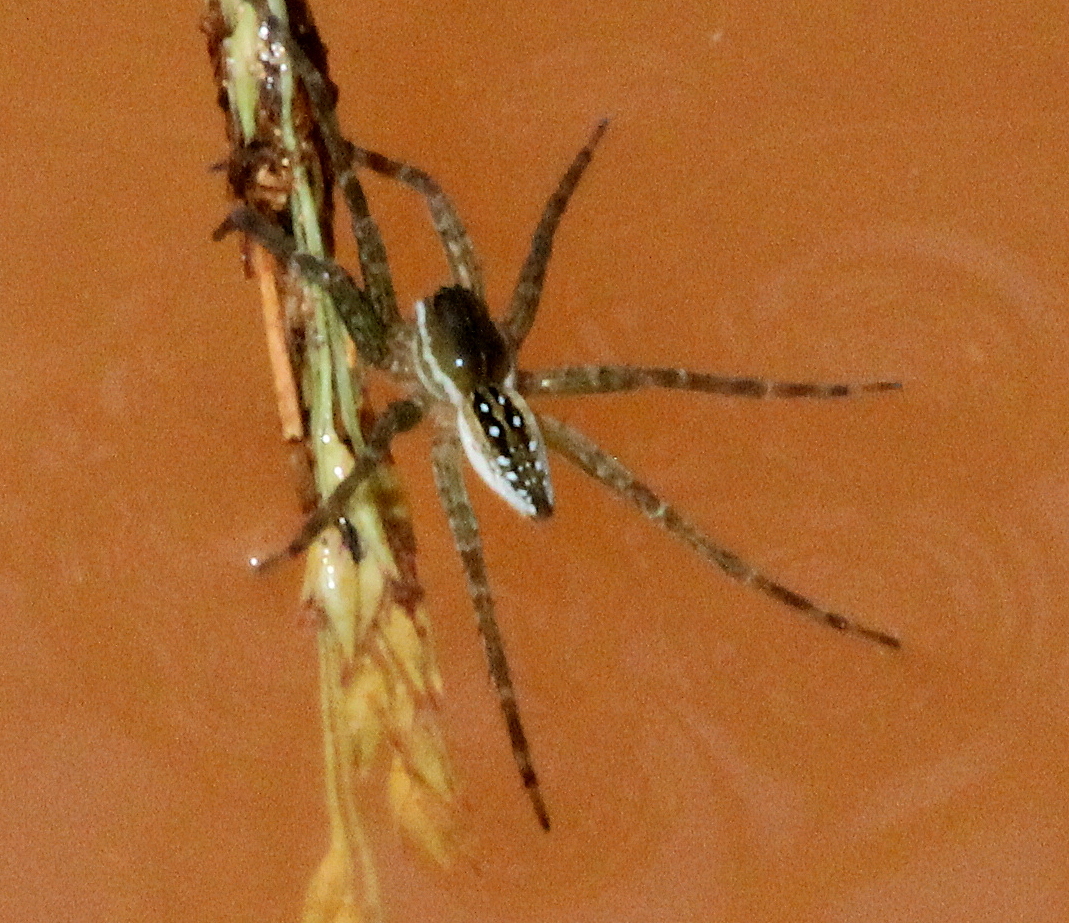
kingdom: Animalia
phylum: Arthropoda
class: Arachnida
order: Araneae
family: Pisauridae
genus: Dolomedes
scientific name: Dolomedes triton
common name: Six-spotted fishing spider
